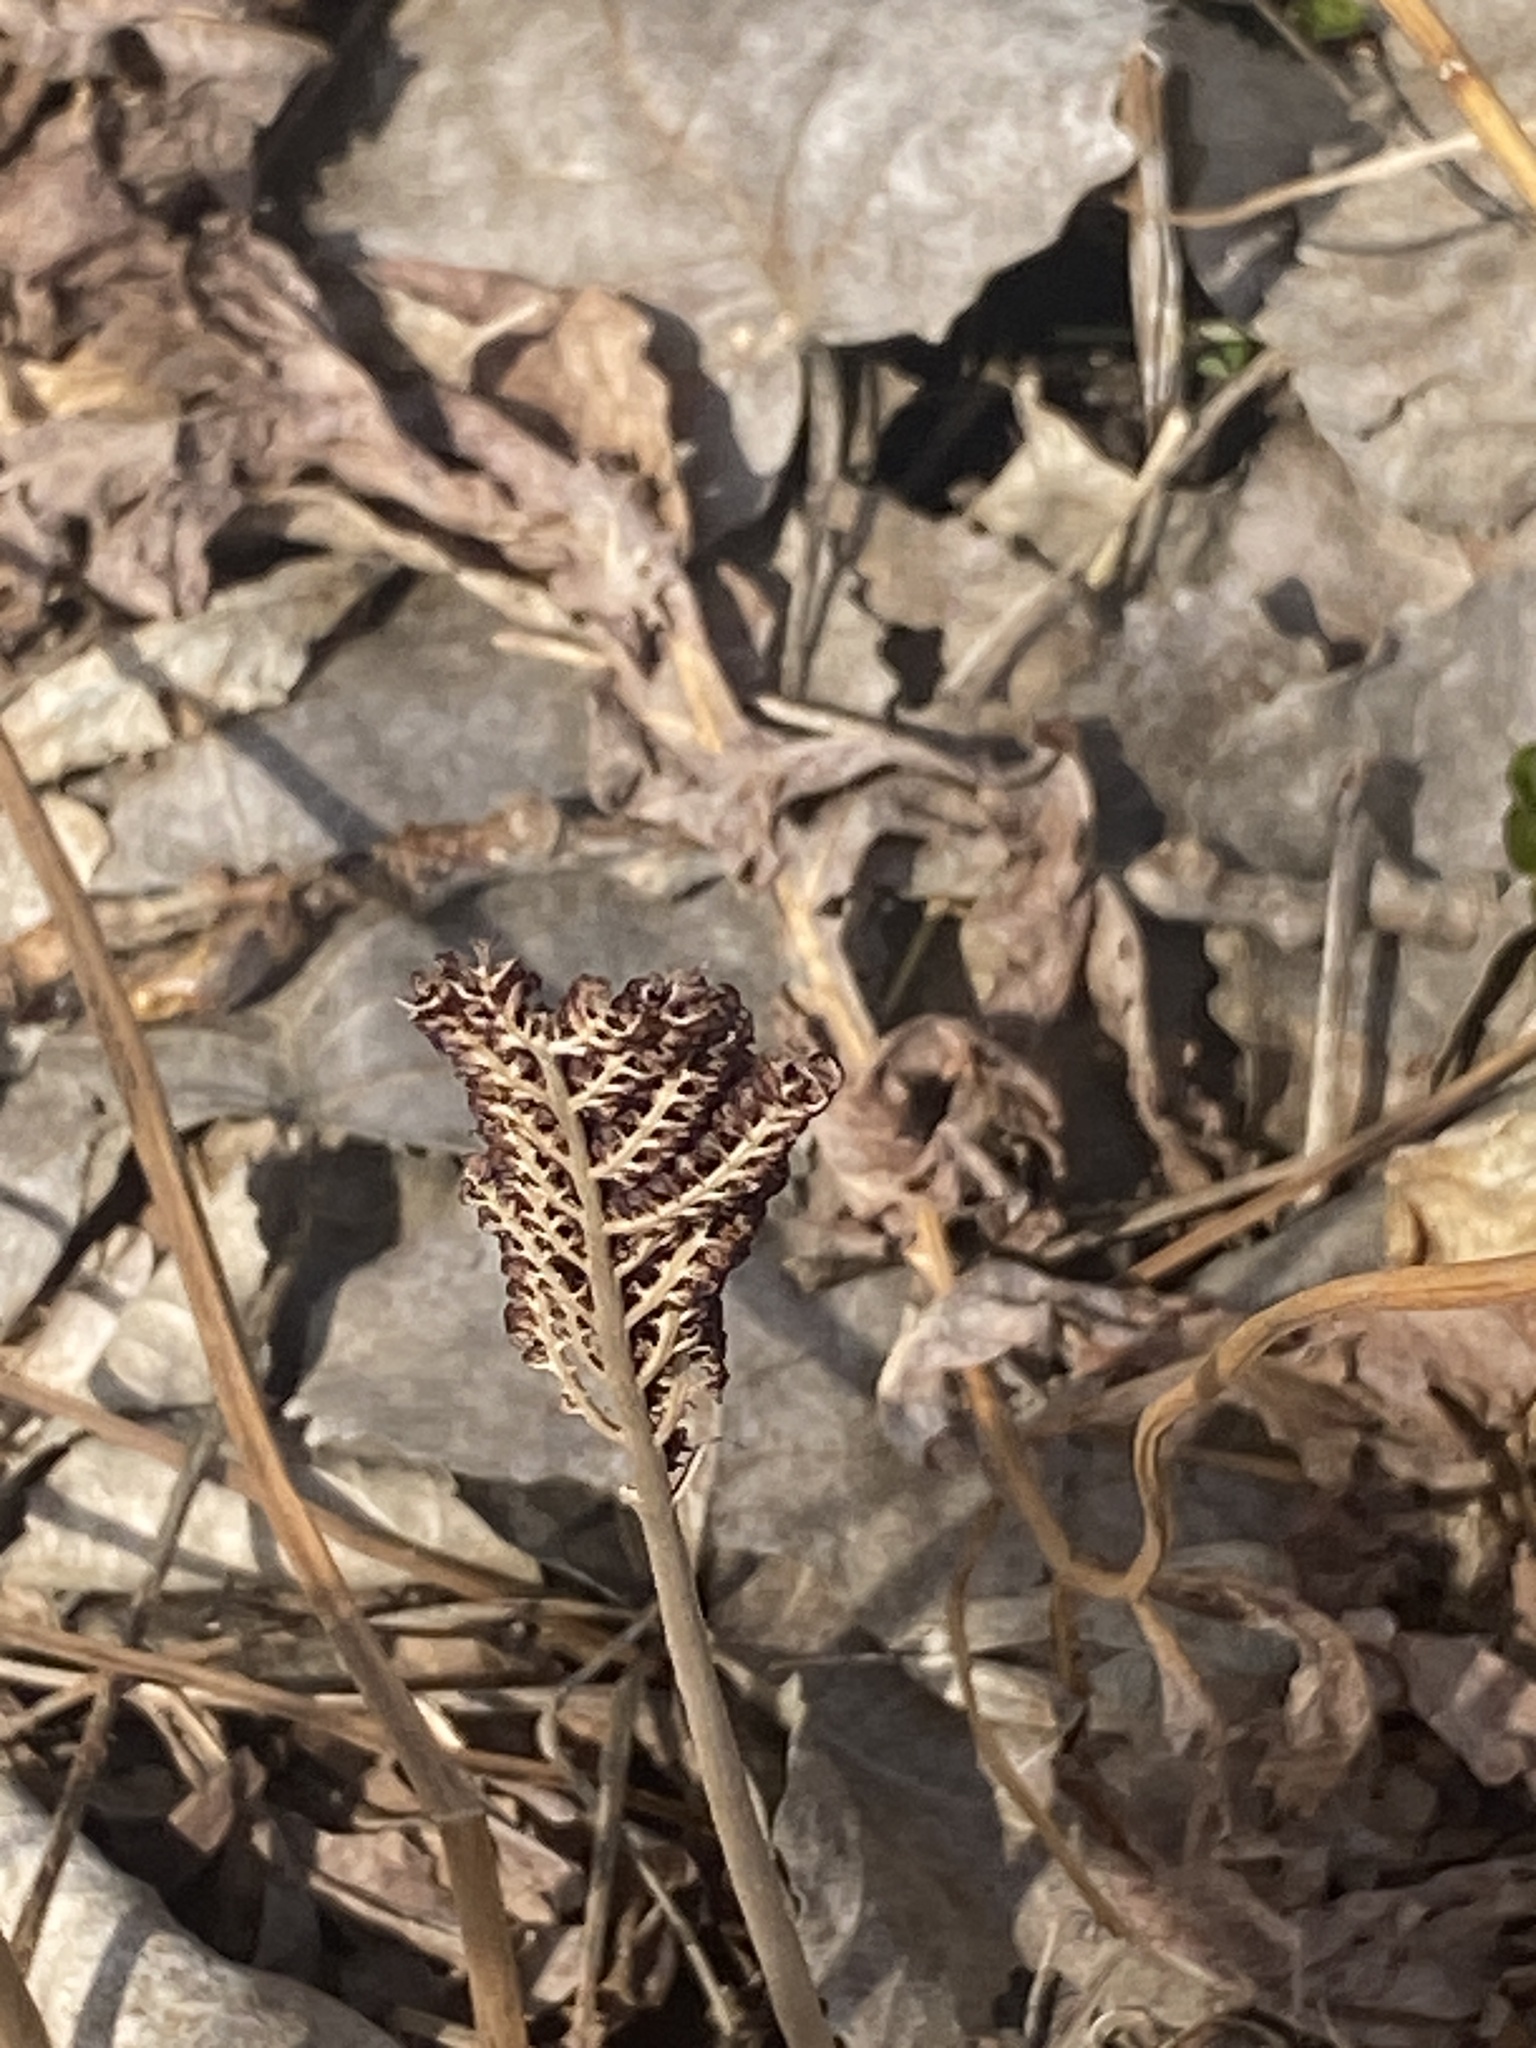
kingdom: Plantae
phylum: Tracheophyta
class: Polypodiopsida
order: Polypodiales
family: Onocleaceae
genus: Onoclea
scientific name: Onoclea sensibilis
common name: Sensitive fern
